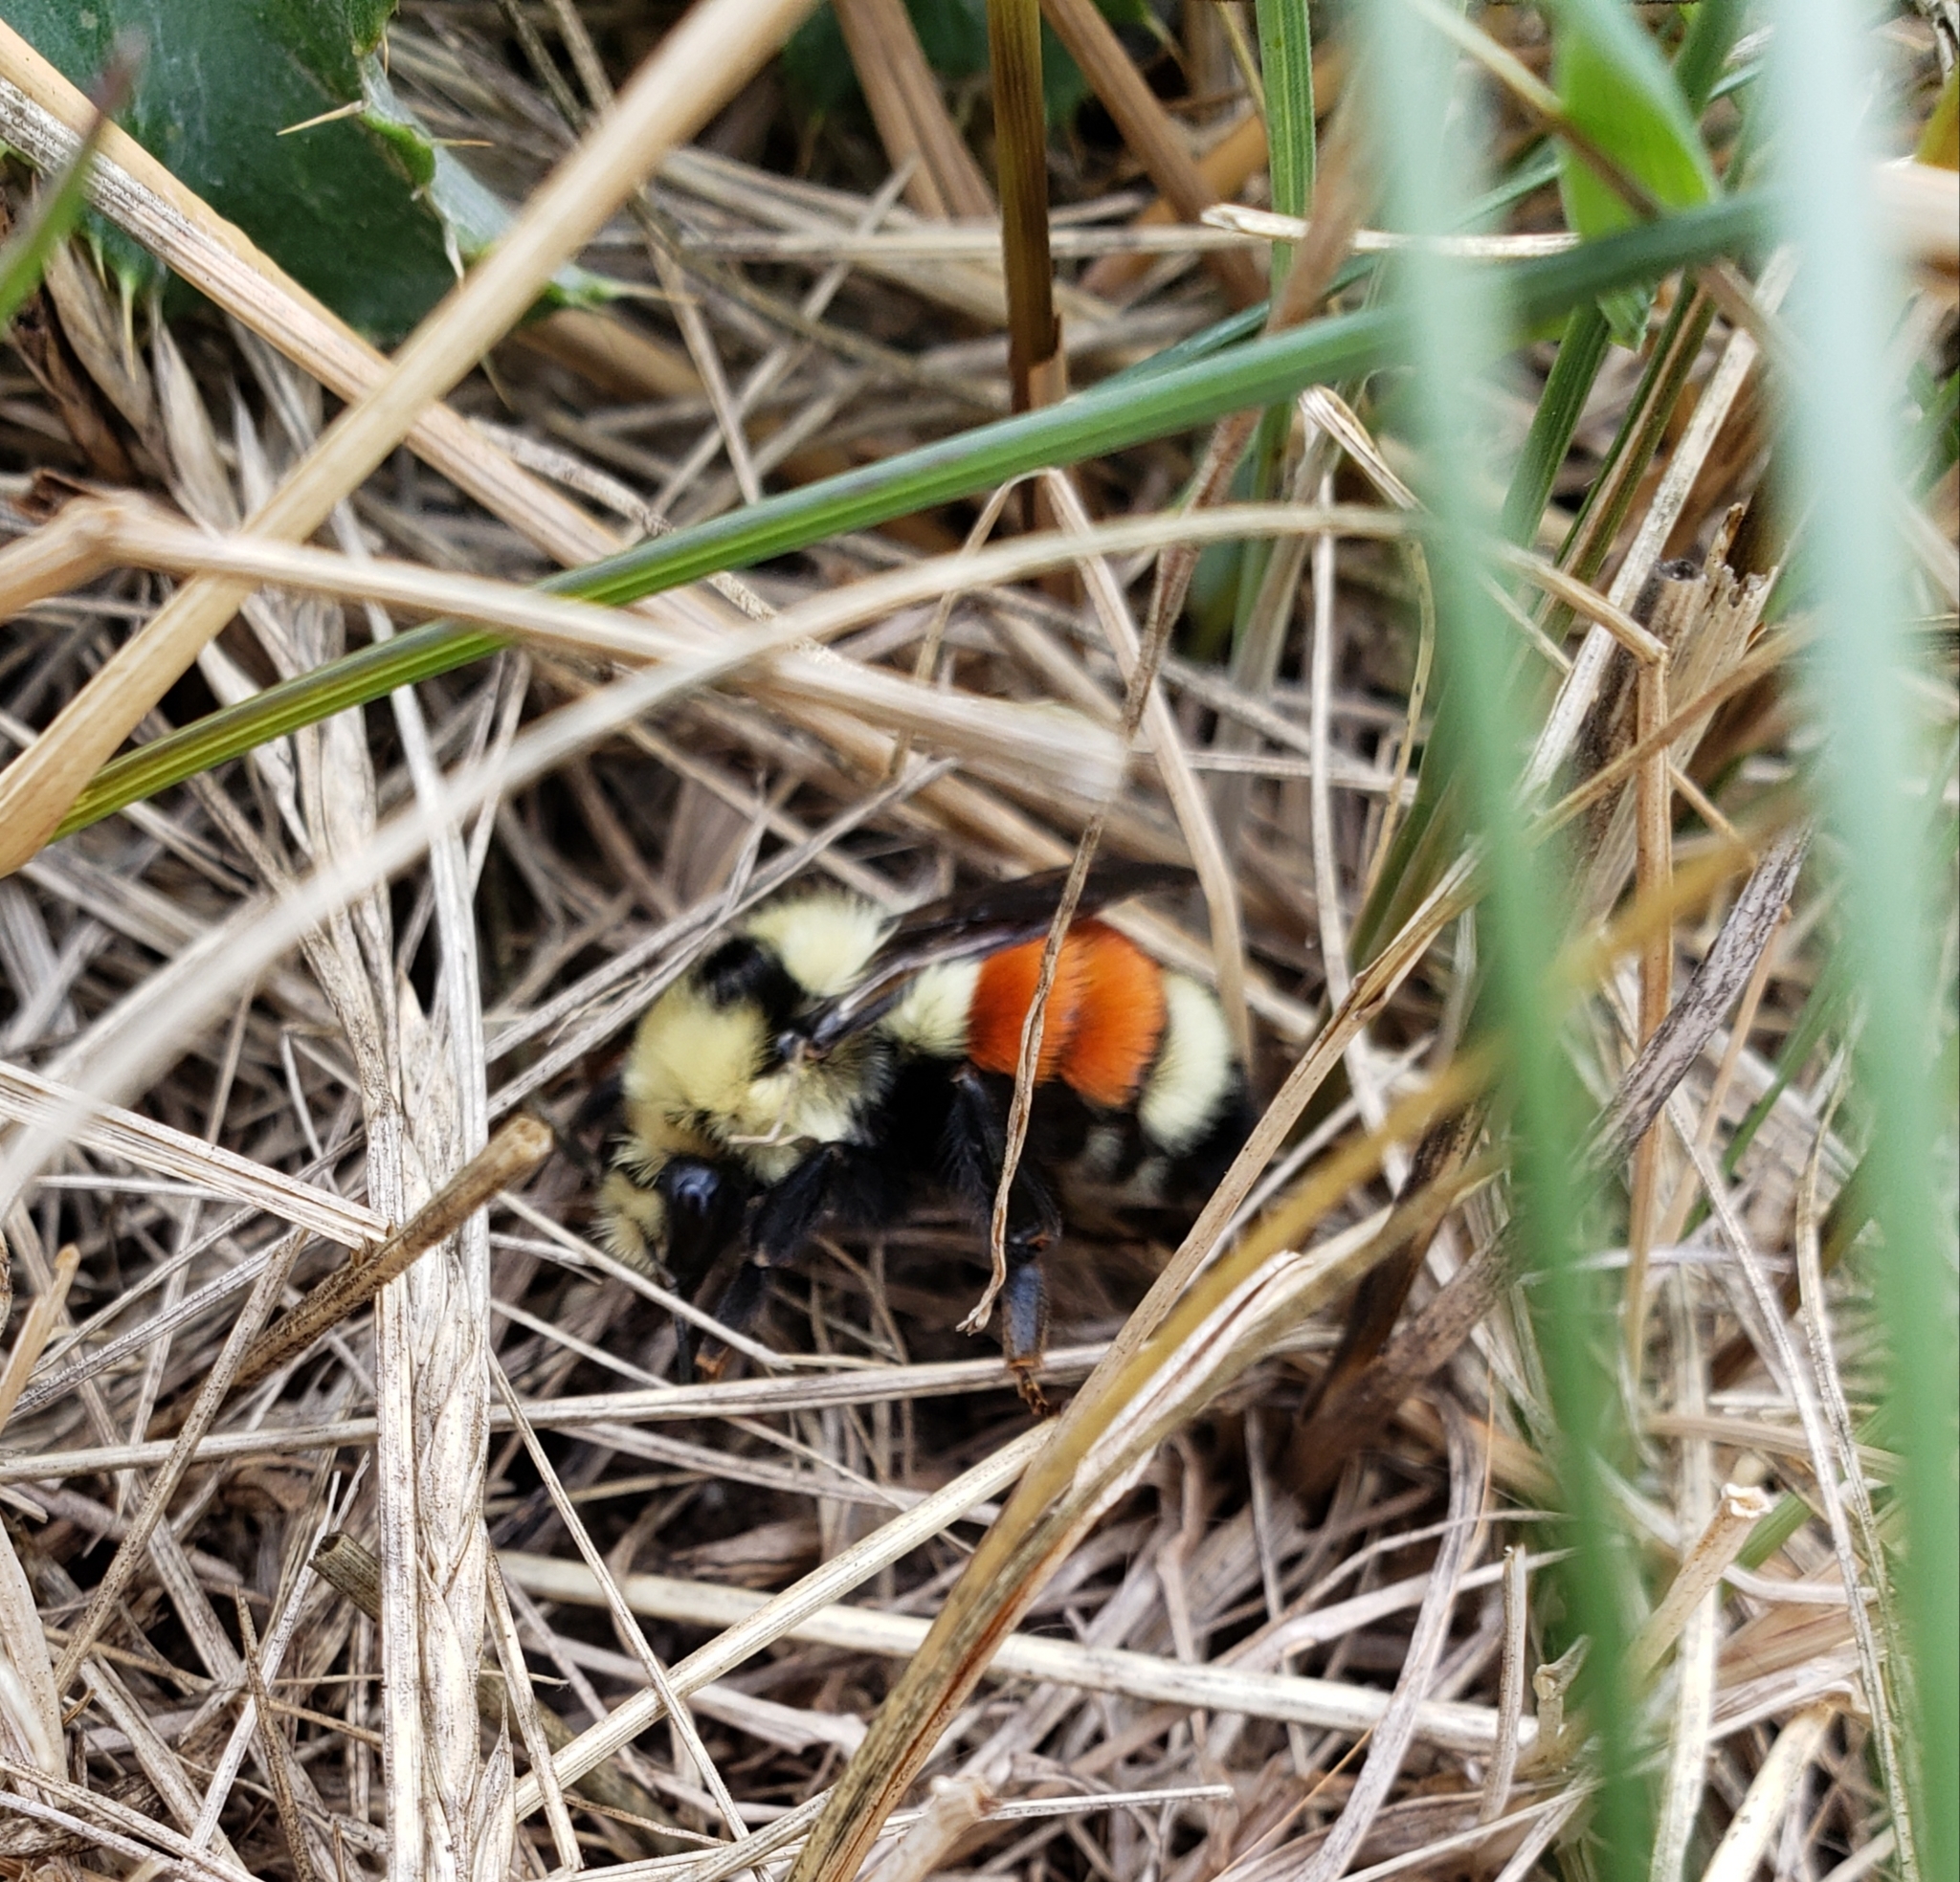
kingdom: Animalia
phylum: Arthropoda
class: Insecta
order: Hymenoptera
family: Apidae
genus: Bombus
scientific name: Bombus huntii
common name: Hunt bumble bee
